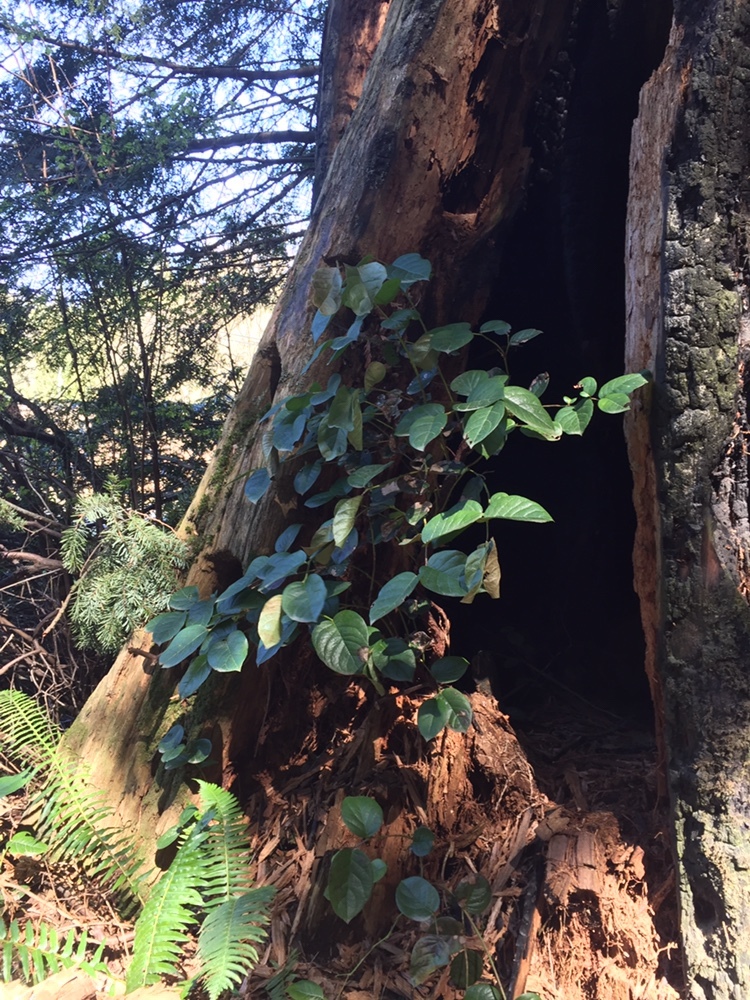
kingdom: Plantae
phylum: Tracheophyta
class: Magnoliopsida
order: Ericales
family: Ericaceae
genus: Gaultheria
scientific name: Gaultheria shallon
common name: Shallon
